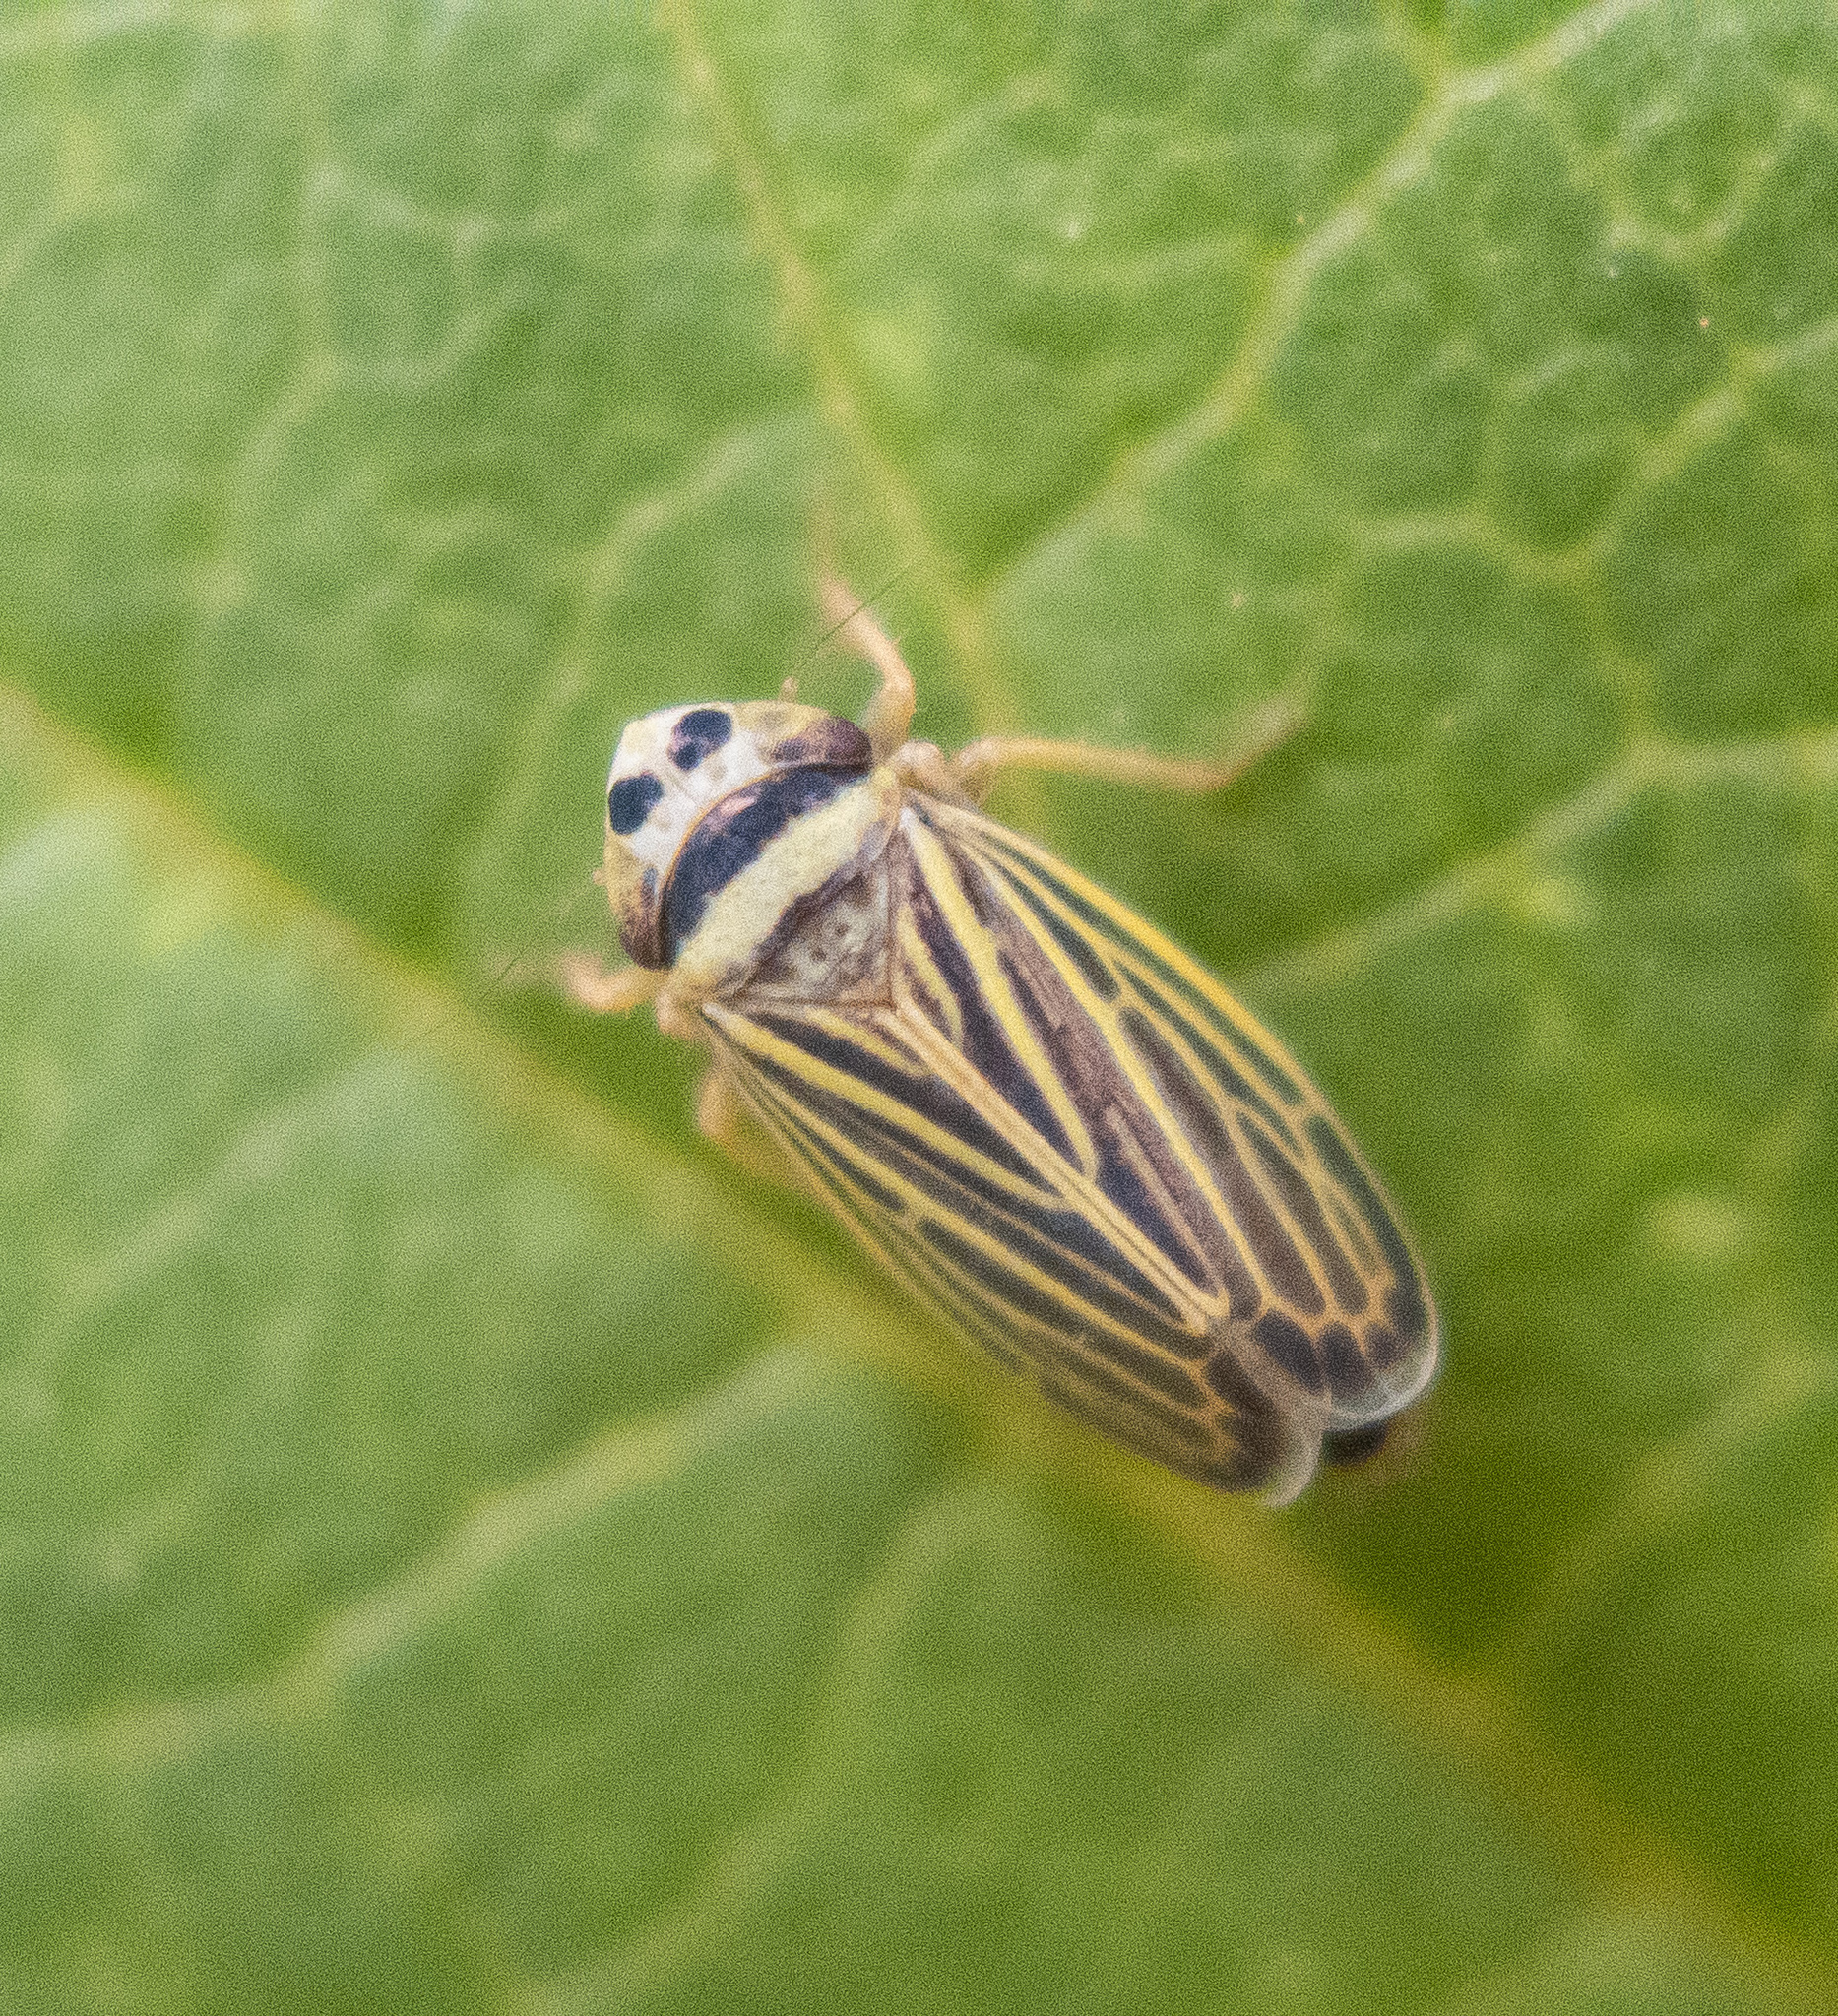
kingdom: Animalia
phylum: Arthropoda
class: Insecta
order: Hemiptera
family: Cicadellidae
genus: Amblysellus
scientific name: Amblysellus curtisii
